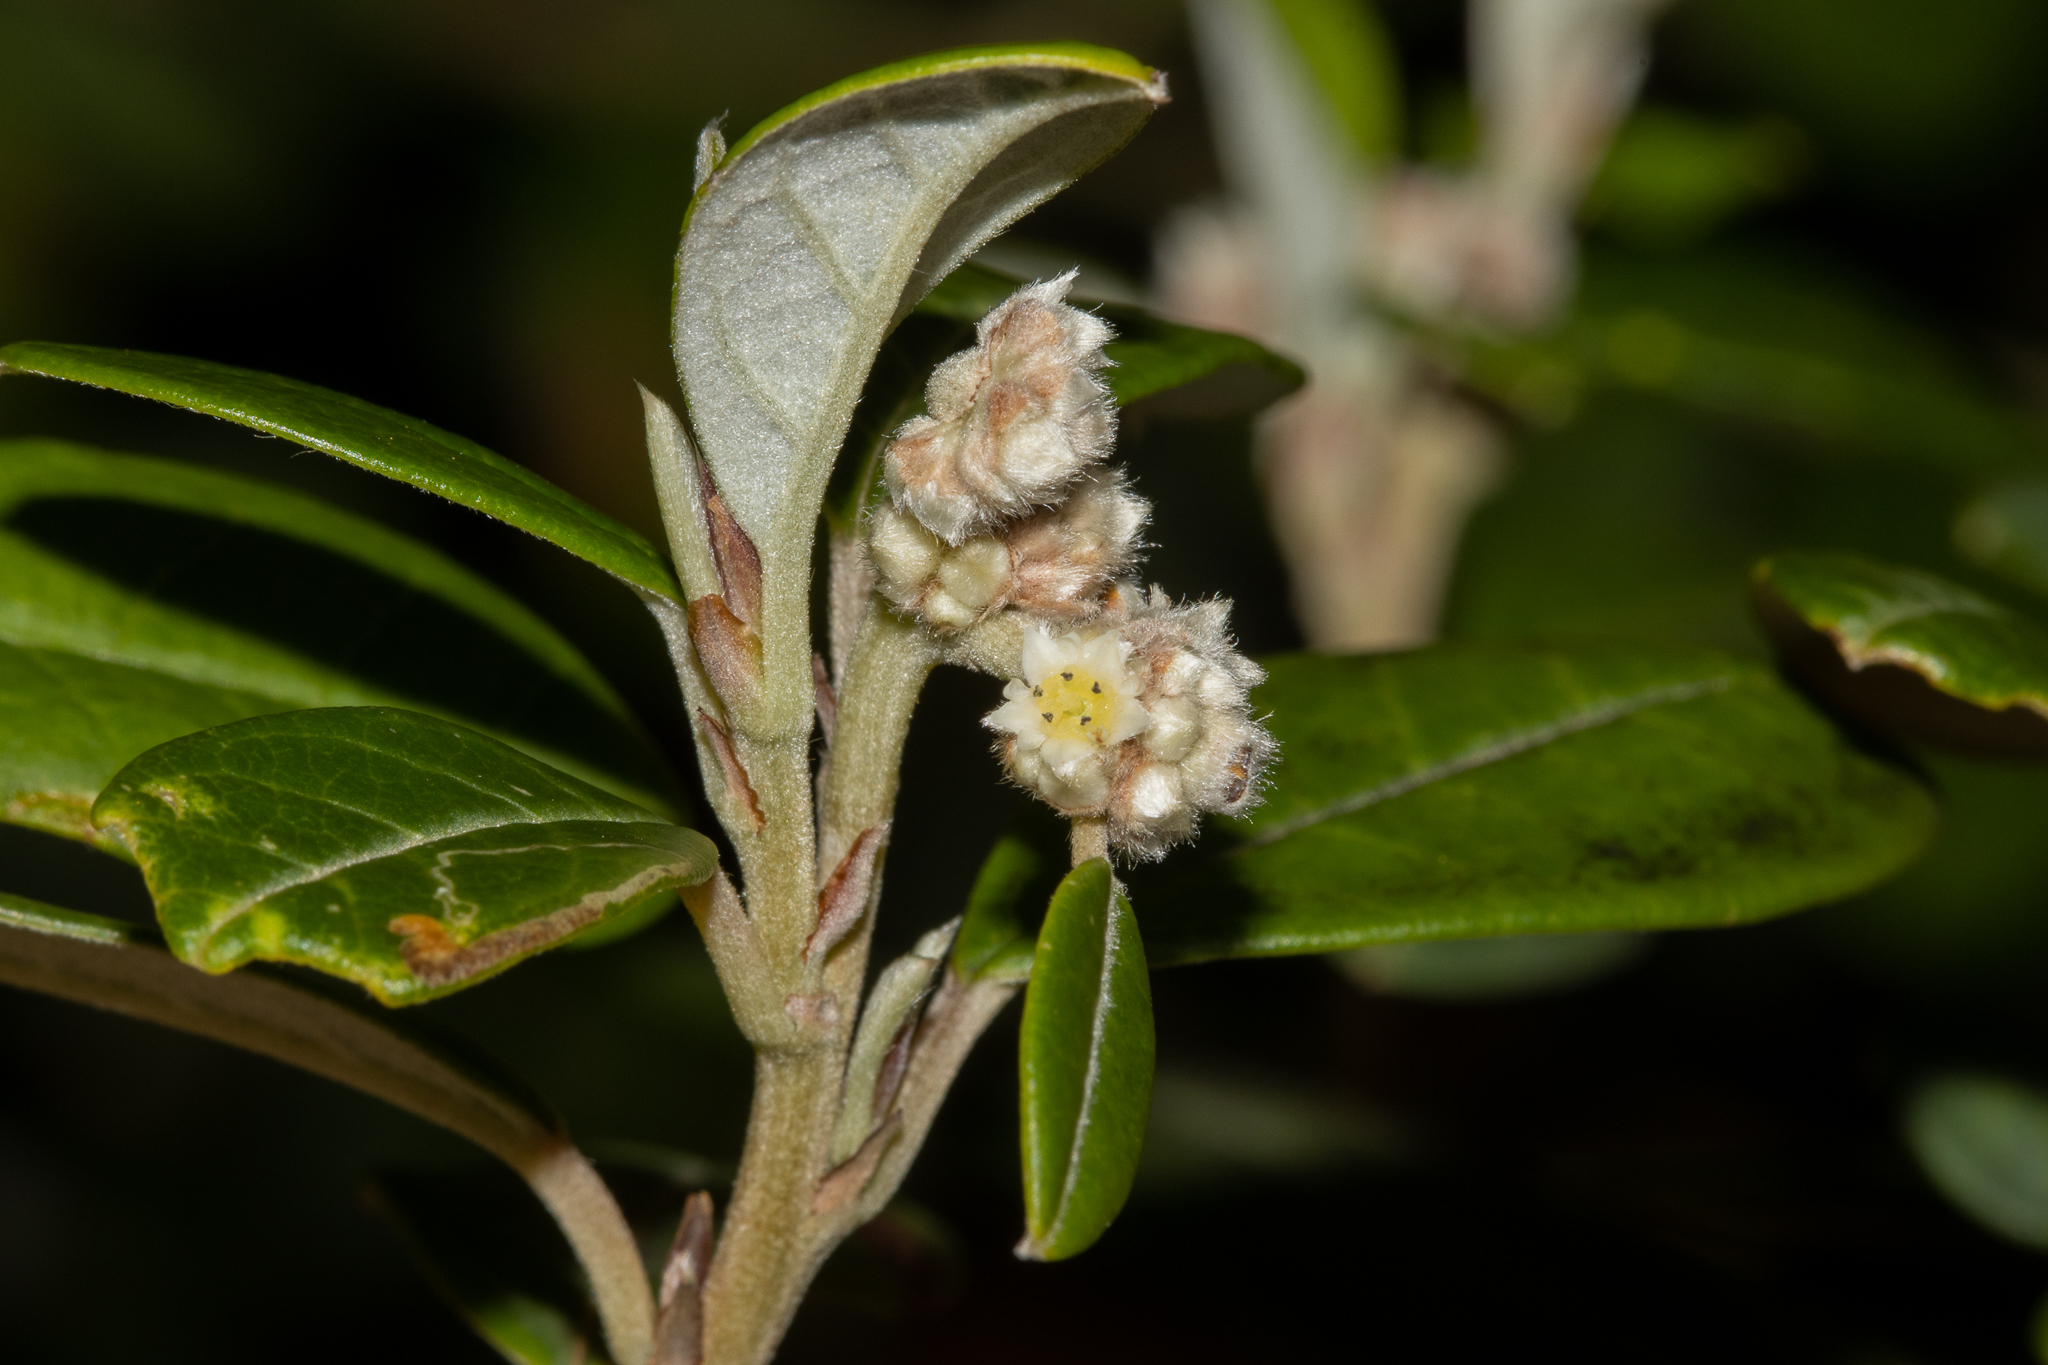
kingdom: Plantae
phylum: Tracheophyta
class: Magnoliopsida
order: Rosales
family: Rhamnaceae
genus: Spyridium
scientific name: Spyridium globulosum
